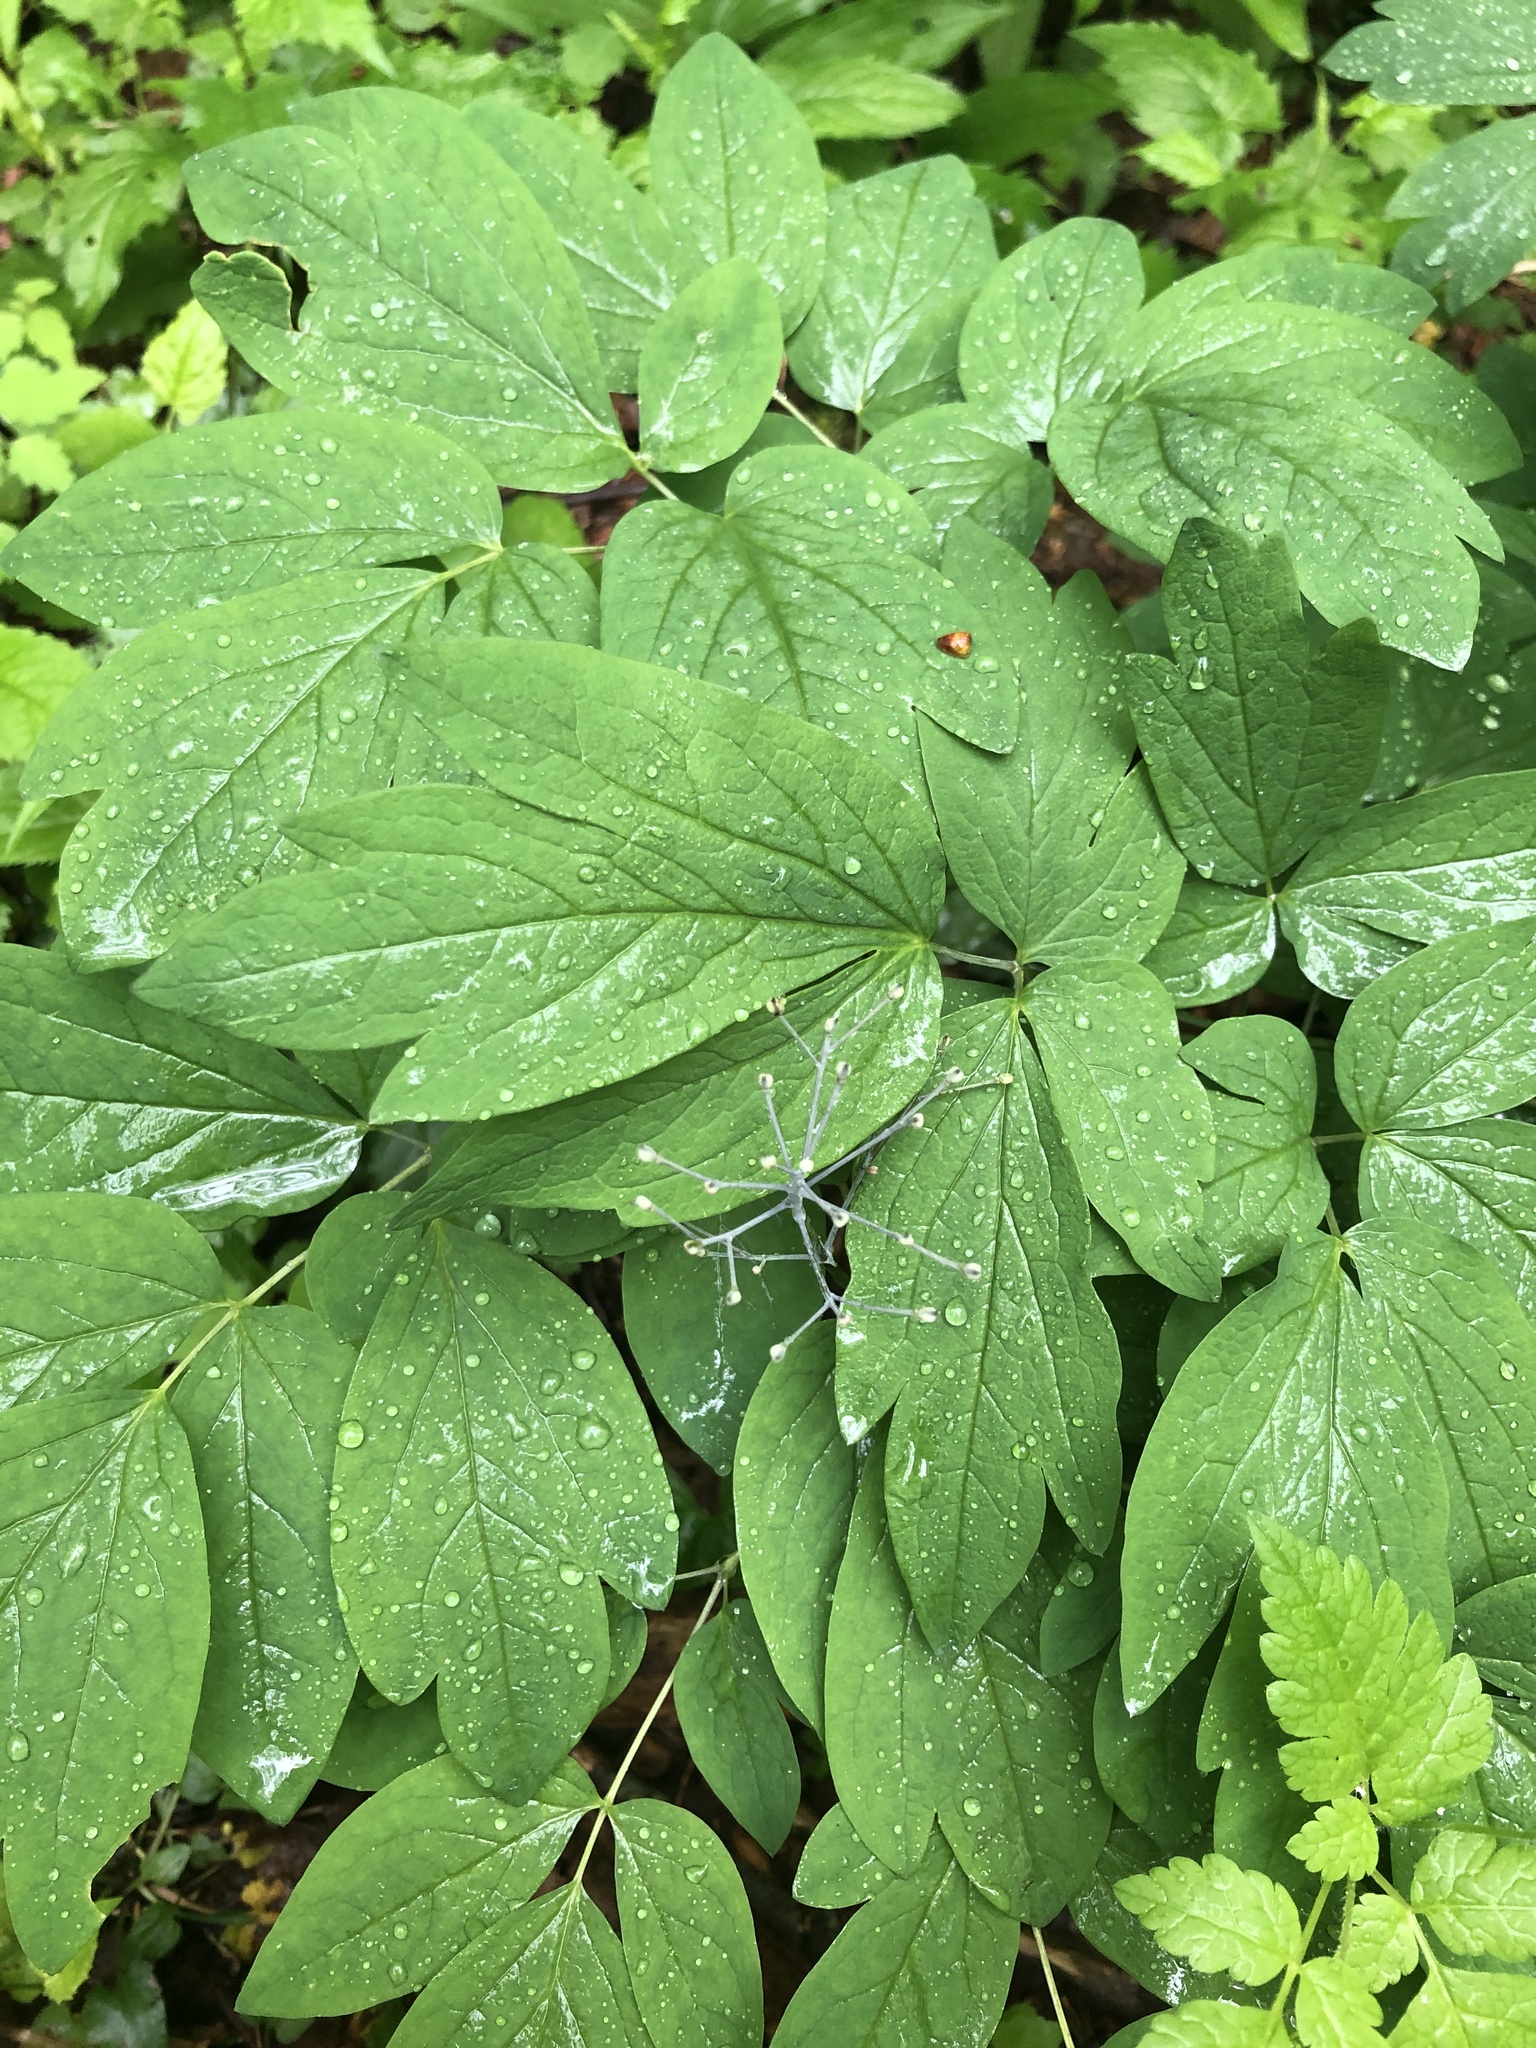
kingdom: Plantae
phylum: Tracheophyta
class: Magnoliopsida
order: Ranunculales
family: Berberidaceae
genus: Caulophyllum
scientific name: Caulophyllum thalictroides
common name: Blue cohosh
